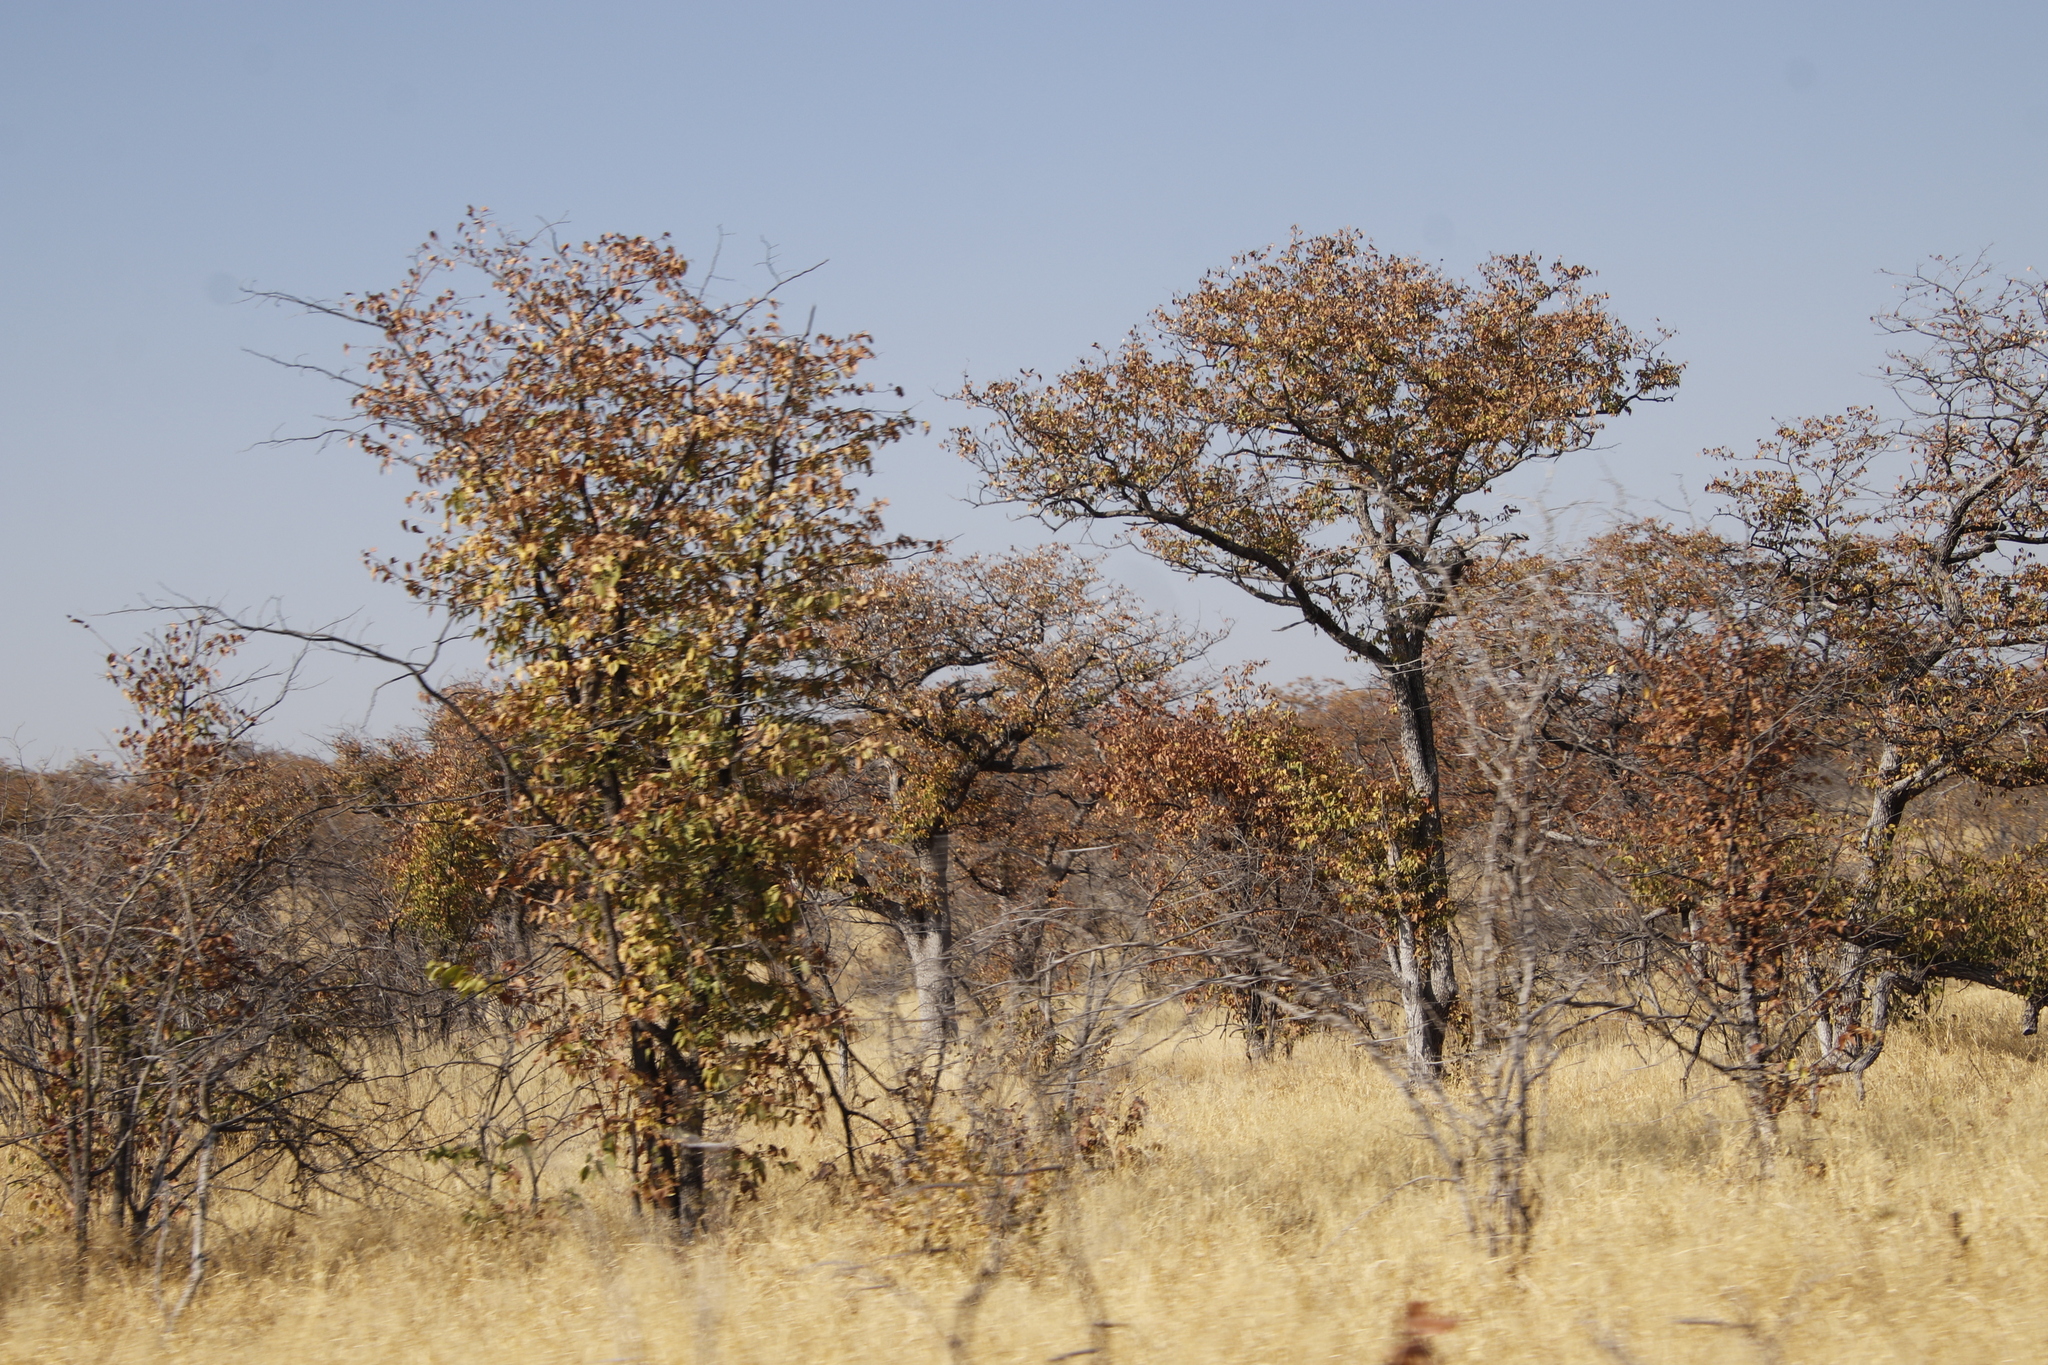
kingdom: Plantae
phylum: Tracheophyta
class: Magnoliopsida
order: Fabales
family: Fabaceae
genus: Colophospermum
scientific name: Colophospermum mopane
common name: Mopane
